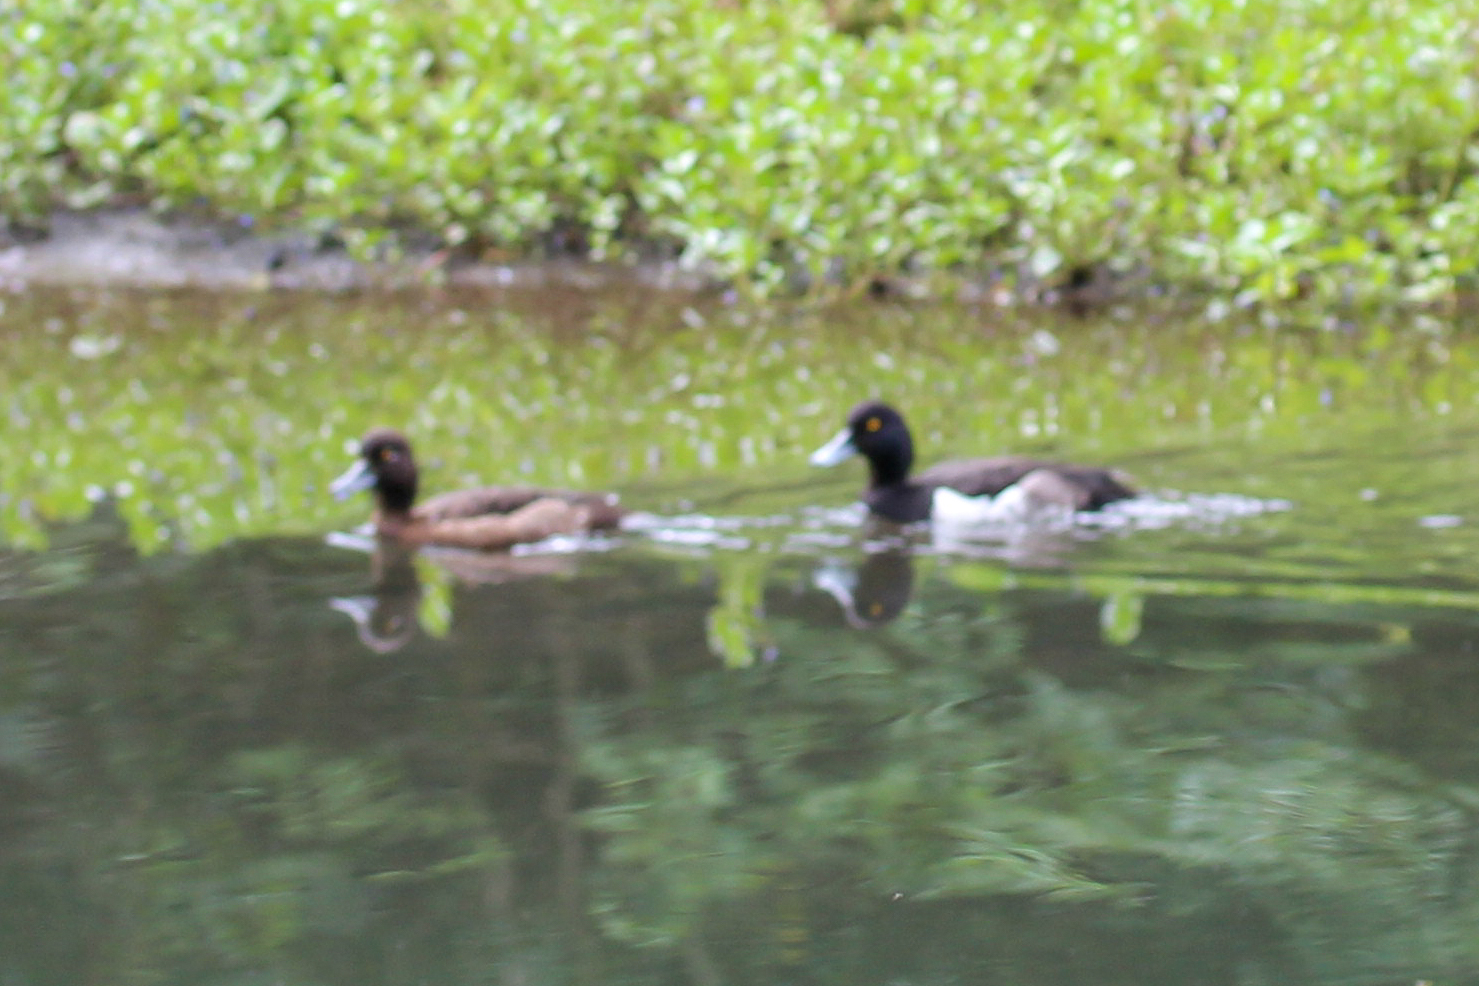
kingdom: Animalia
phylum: Chordata
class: Aves
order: Anseriformes
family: Anatidae
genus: Aythya
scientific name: Aythya fuligula
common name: Tufted duck
